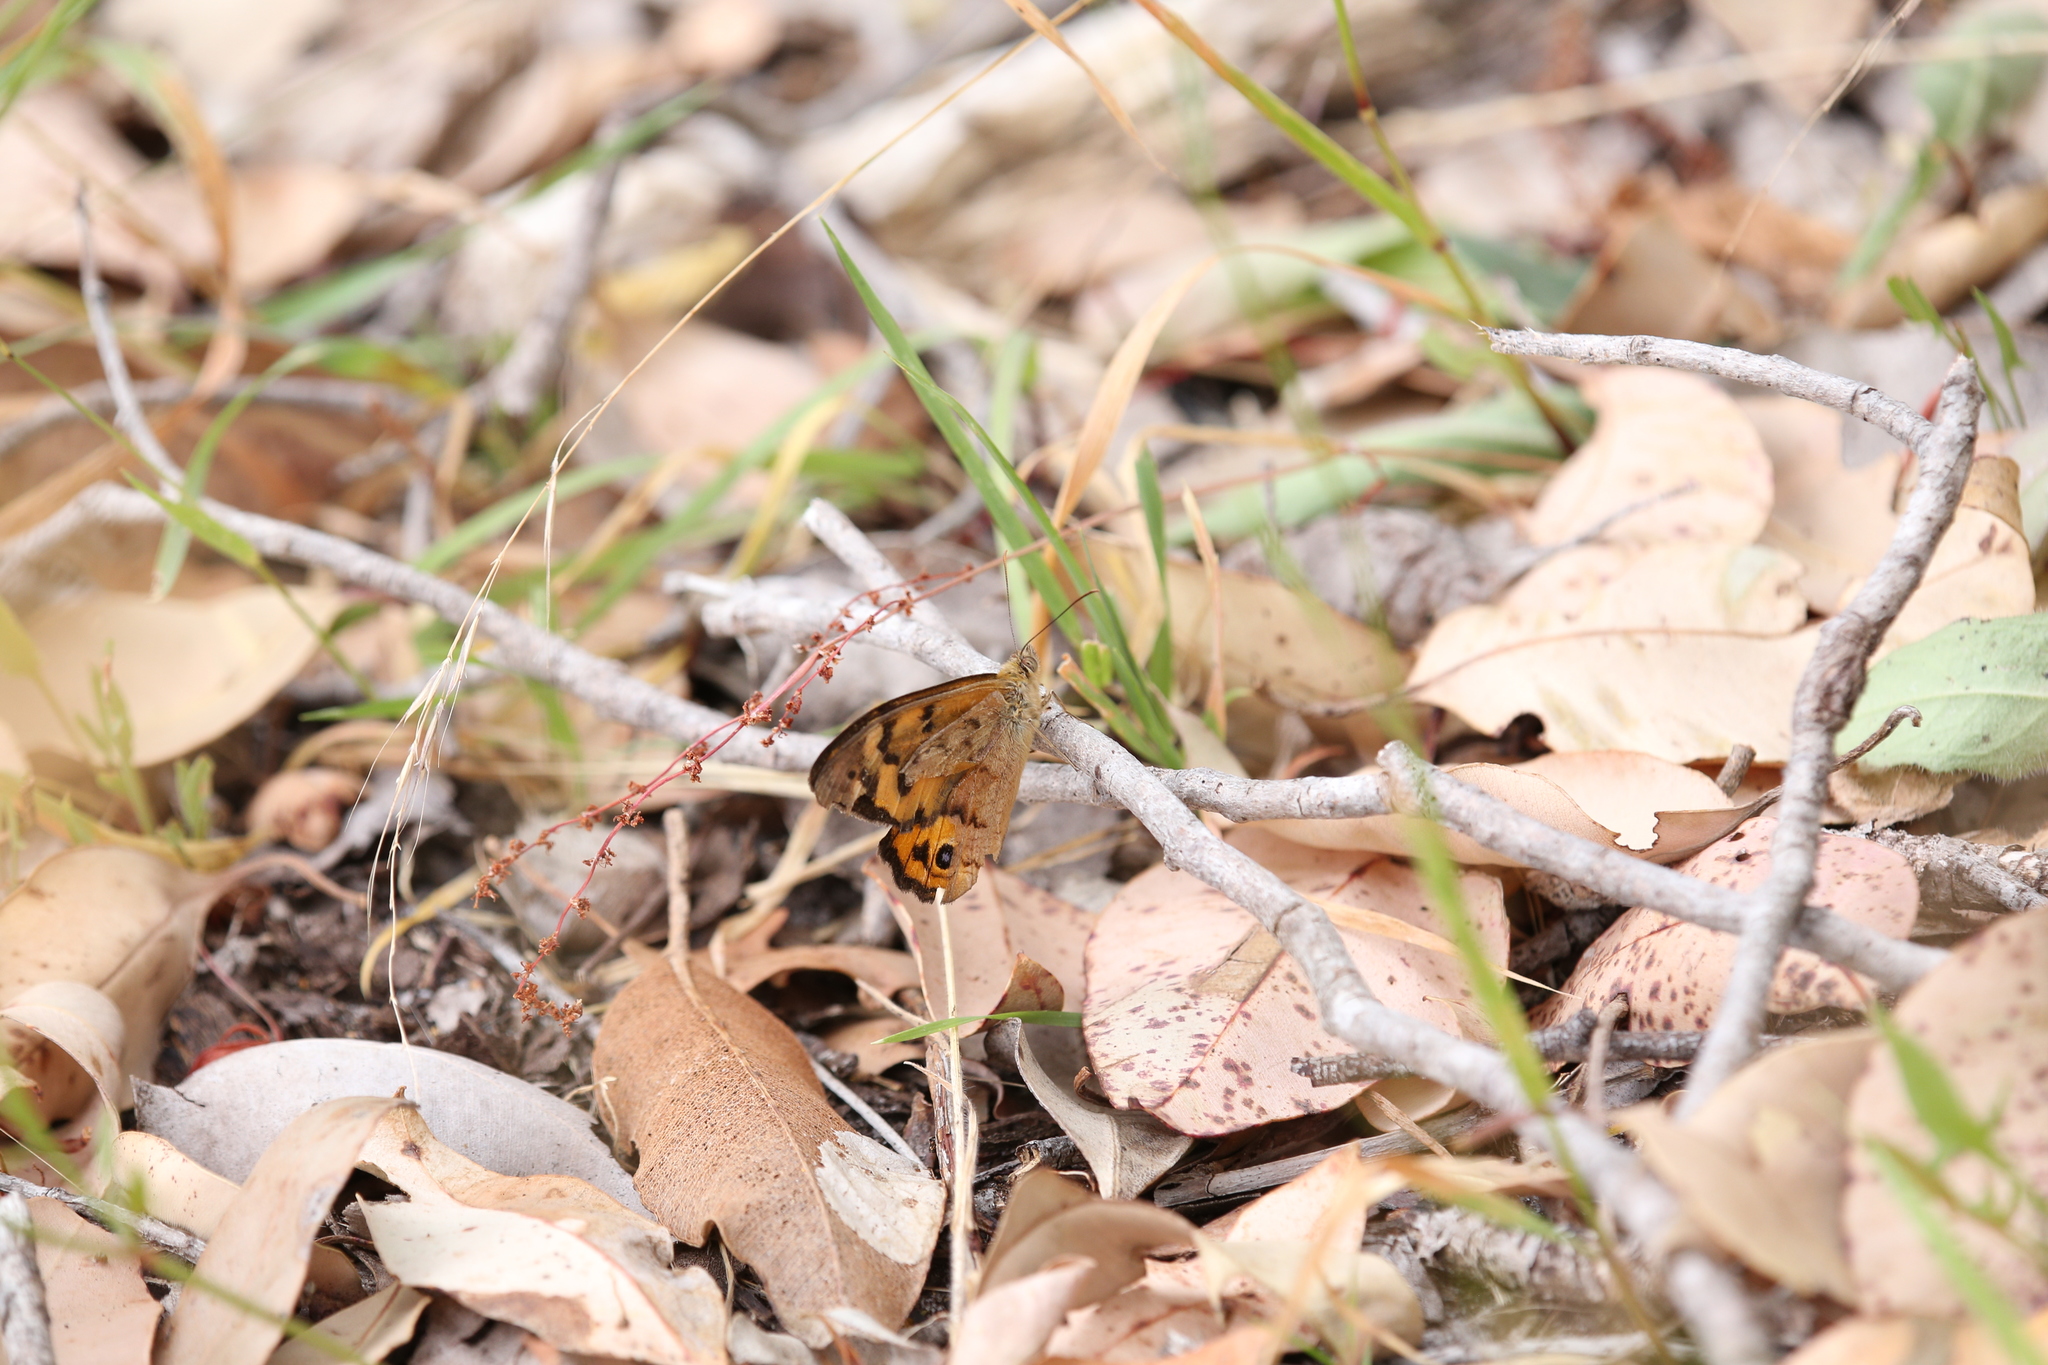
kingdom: Animalia
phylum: Arthropoda
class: Insecta
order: Lepidoptera
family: Nymphalidae
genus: Heteronympha
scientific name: Heteronympha merope
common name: Common brown
